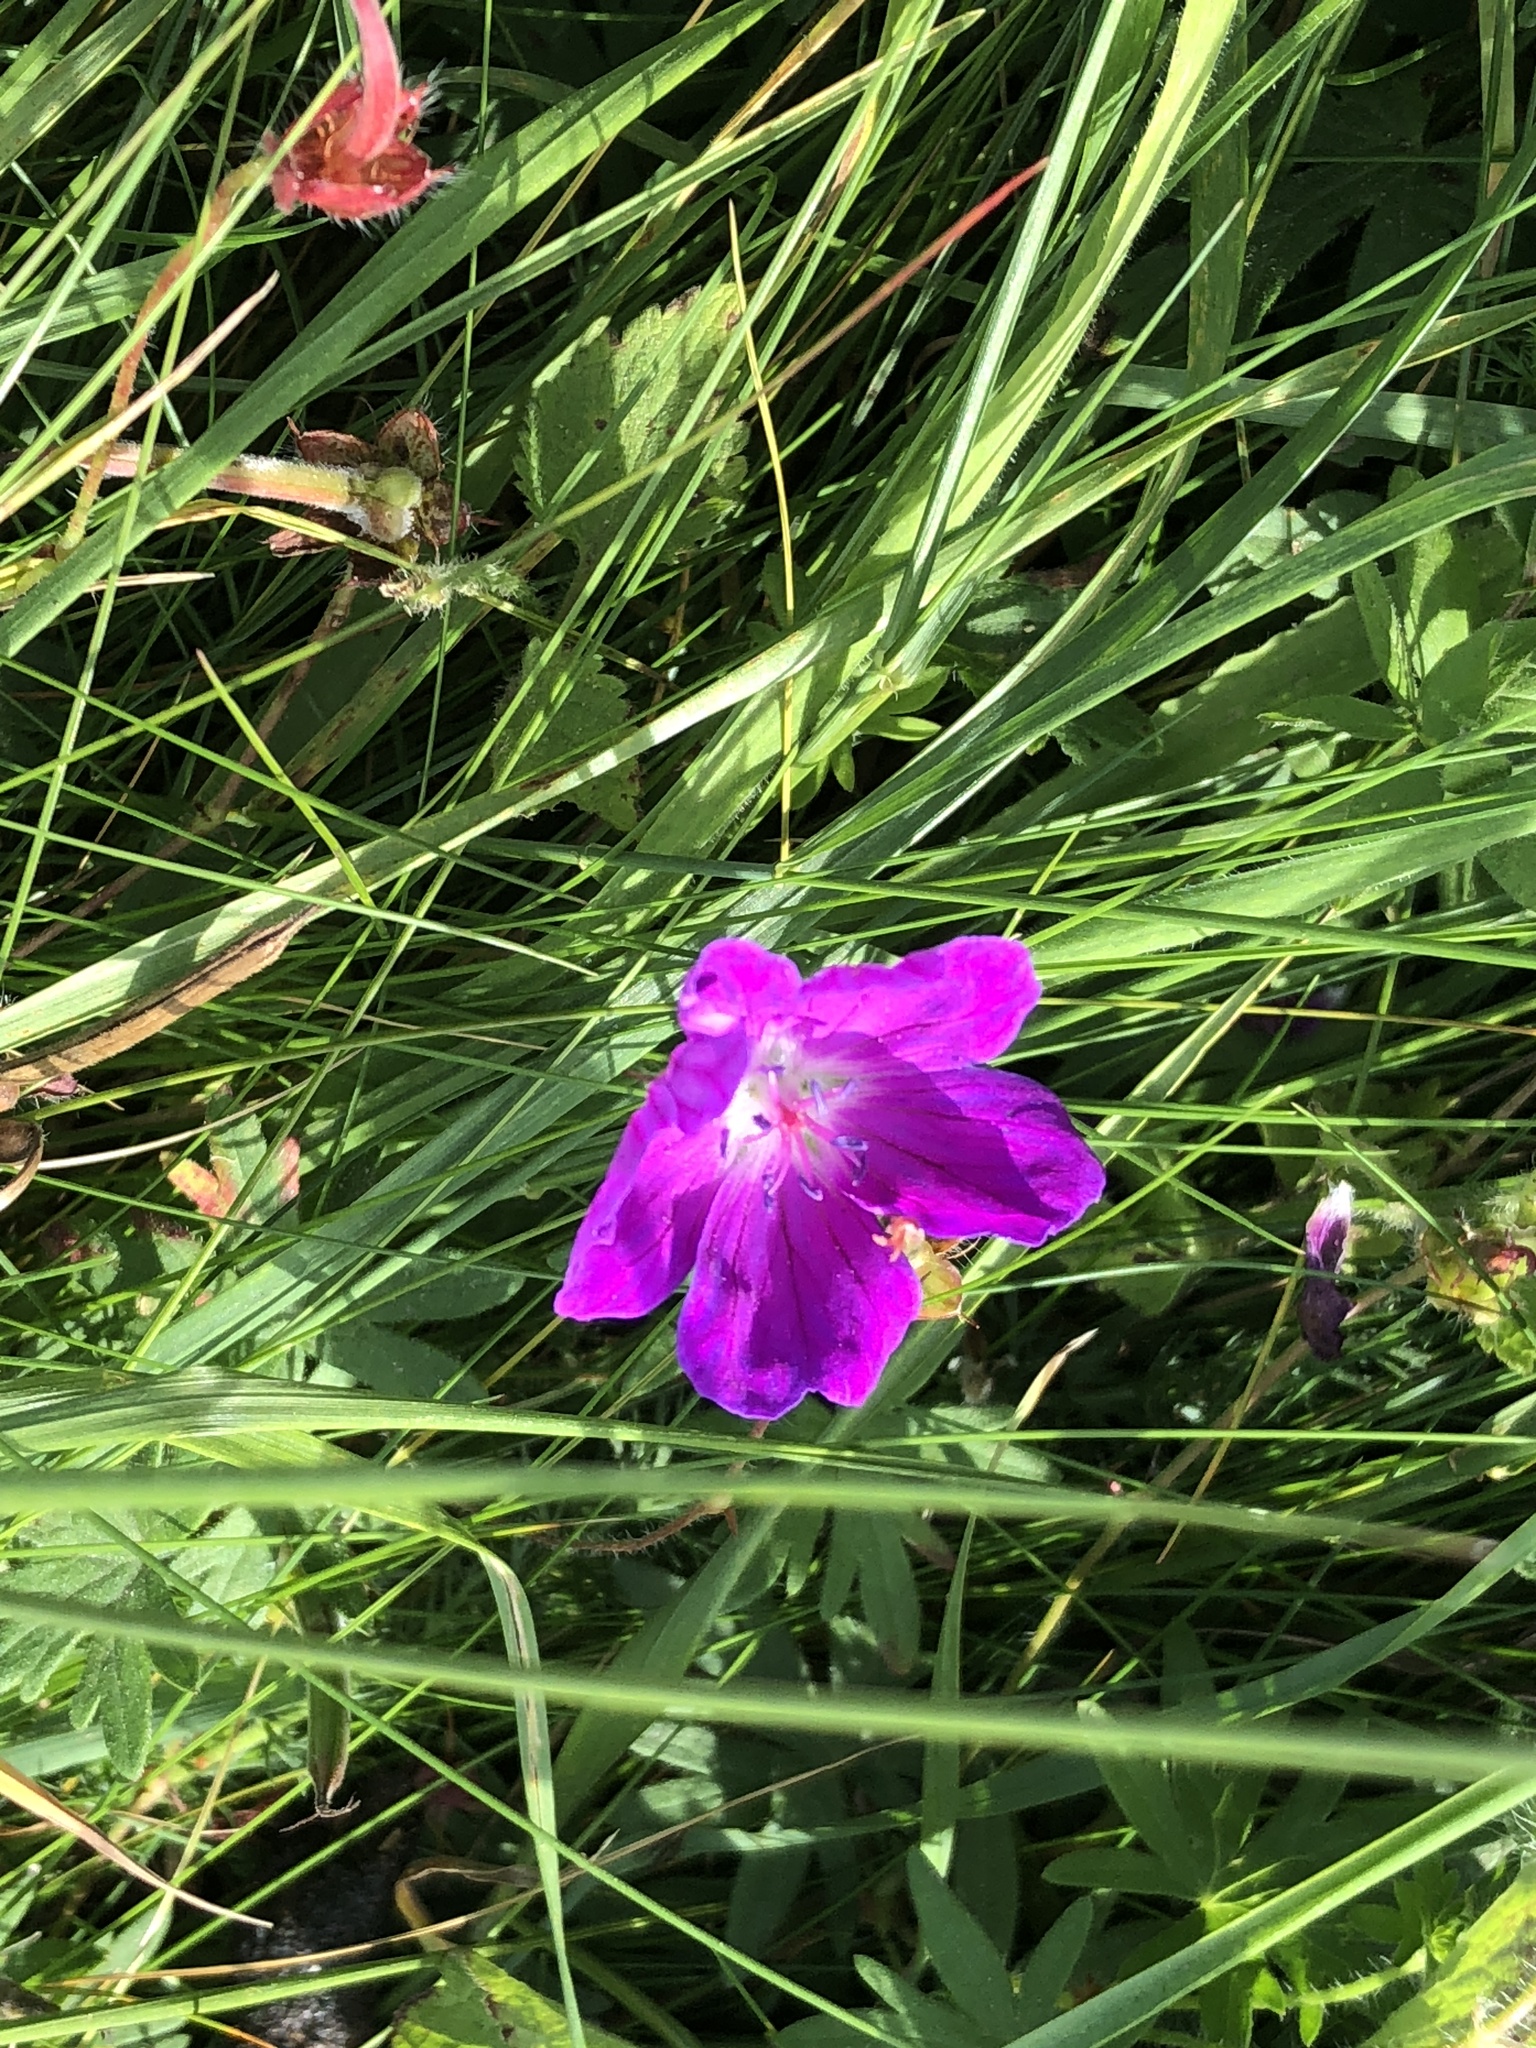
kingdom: Plantae
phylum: Tracheophyta
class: Magnoliopsida
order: Geraniales
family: Geraniaceae
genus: Geranium
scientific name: Geranium sanguineum
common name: Bloody crane's-bill
